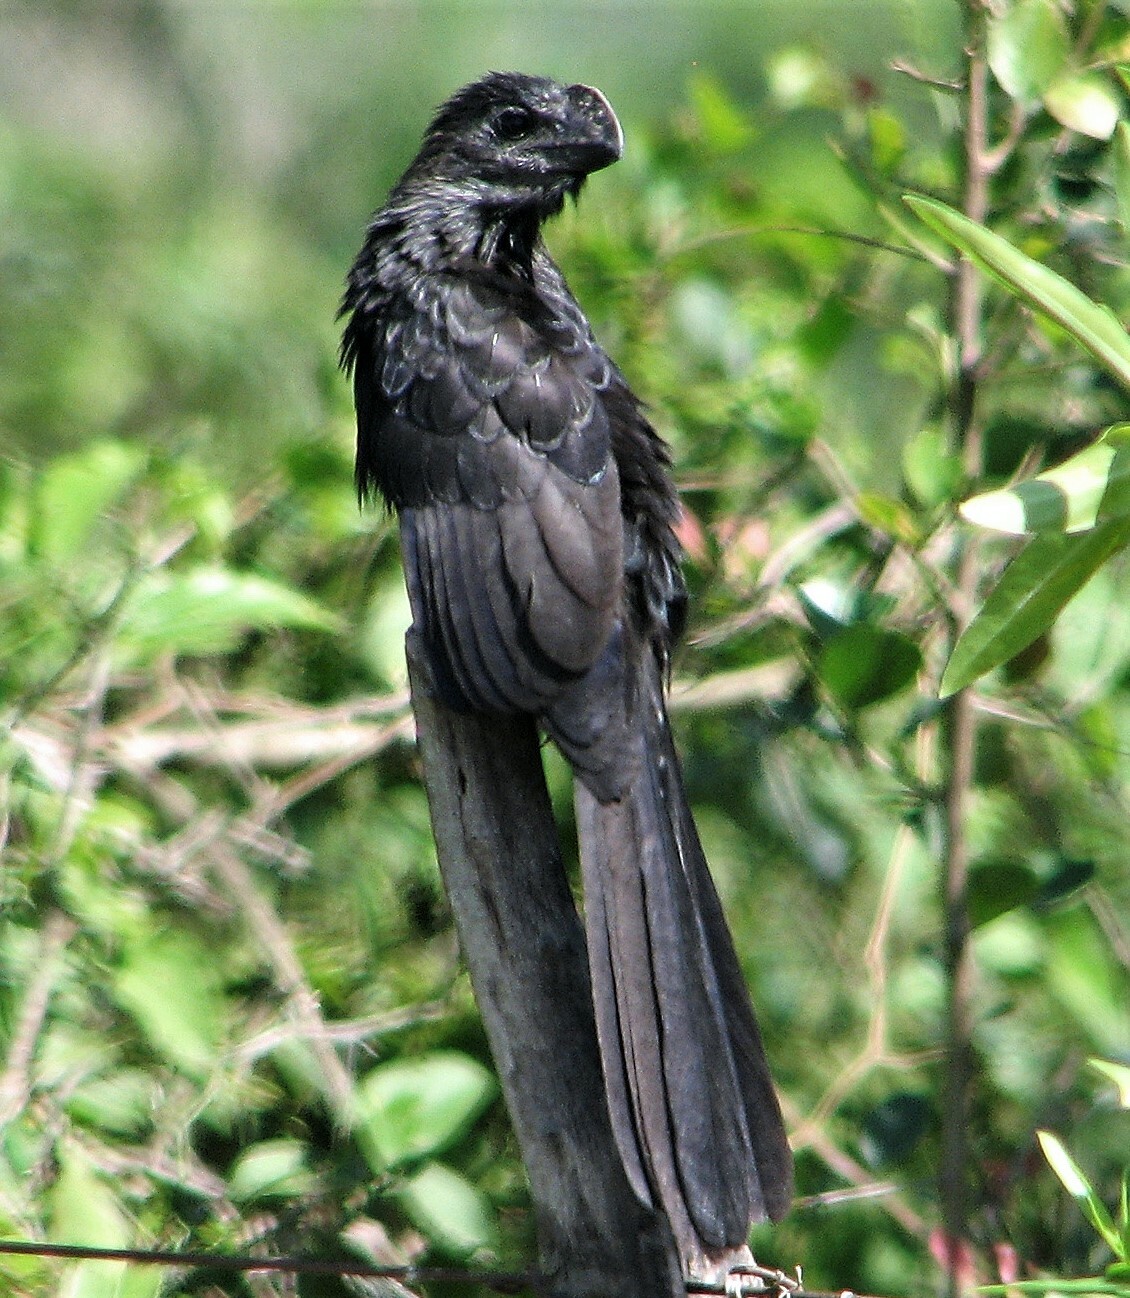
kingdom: Animalia
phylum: Chordata
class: Aves
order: Cuculiformes
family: Cuculidae
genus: Crotophaga
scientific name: Crotophaga ani
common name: Smooth-billed ani
